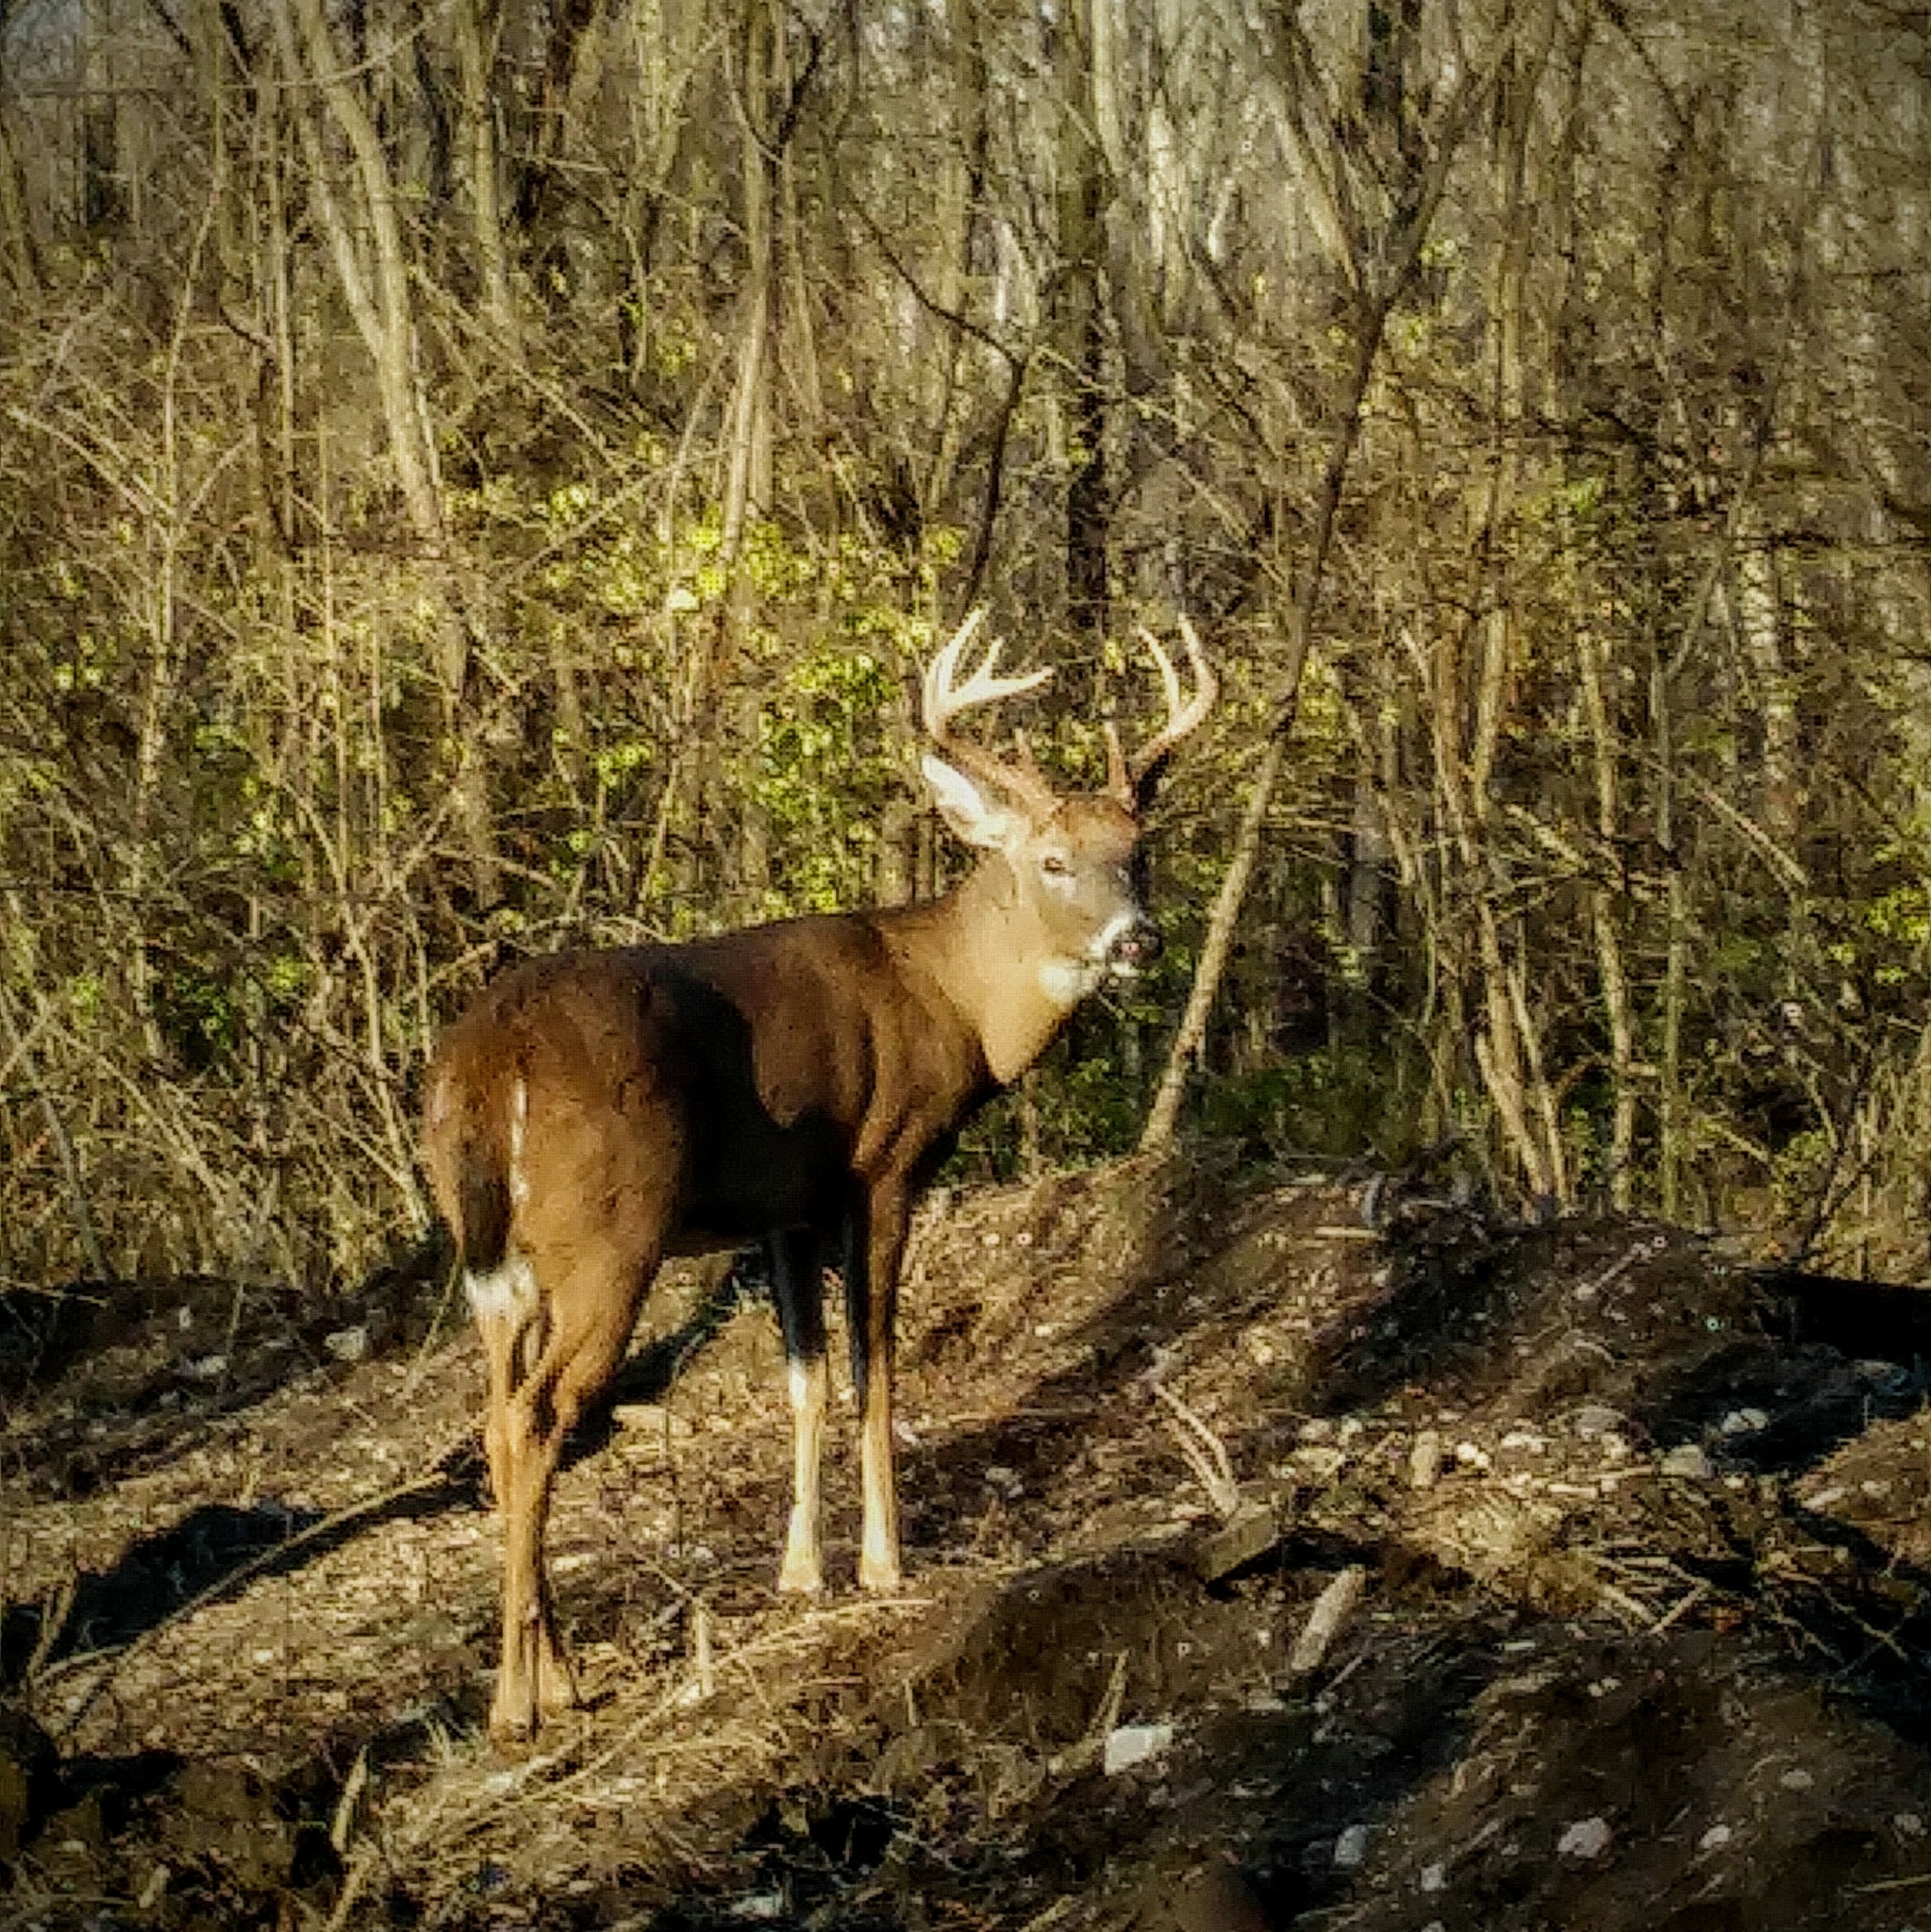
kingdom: Animalia
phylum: Chordata
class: Mammalia
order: Artiodactyla
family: Cervidae
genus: Odocoileus
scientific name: Odocoileus virginianus
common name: White-tailed deer
